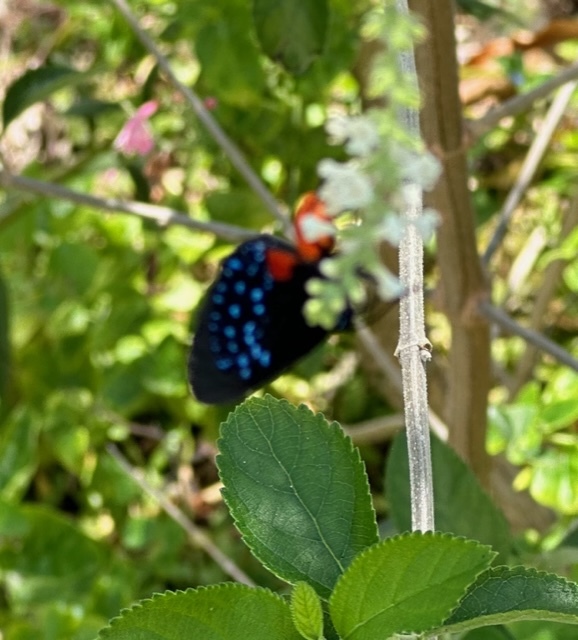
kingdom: Animalia
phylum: Arthropoda
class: Insecta
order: Lepidoptera
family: Lycaenidae
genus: Eumaeus
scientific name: Eumaeus atala
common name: Atala
